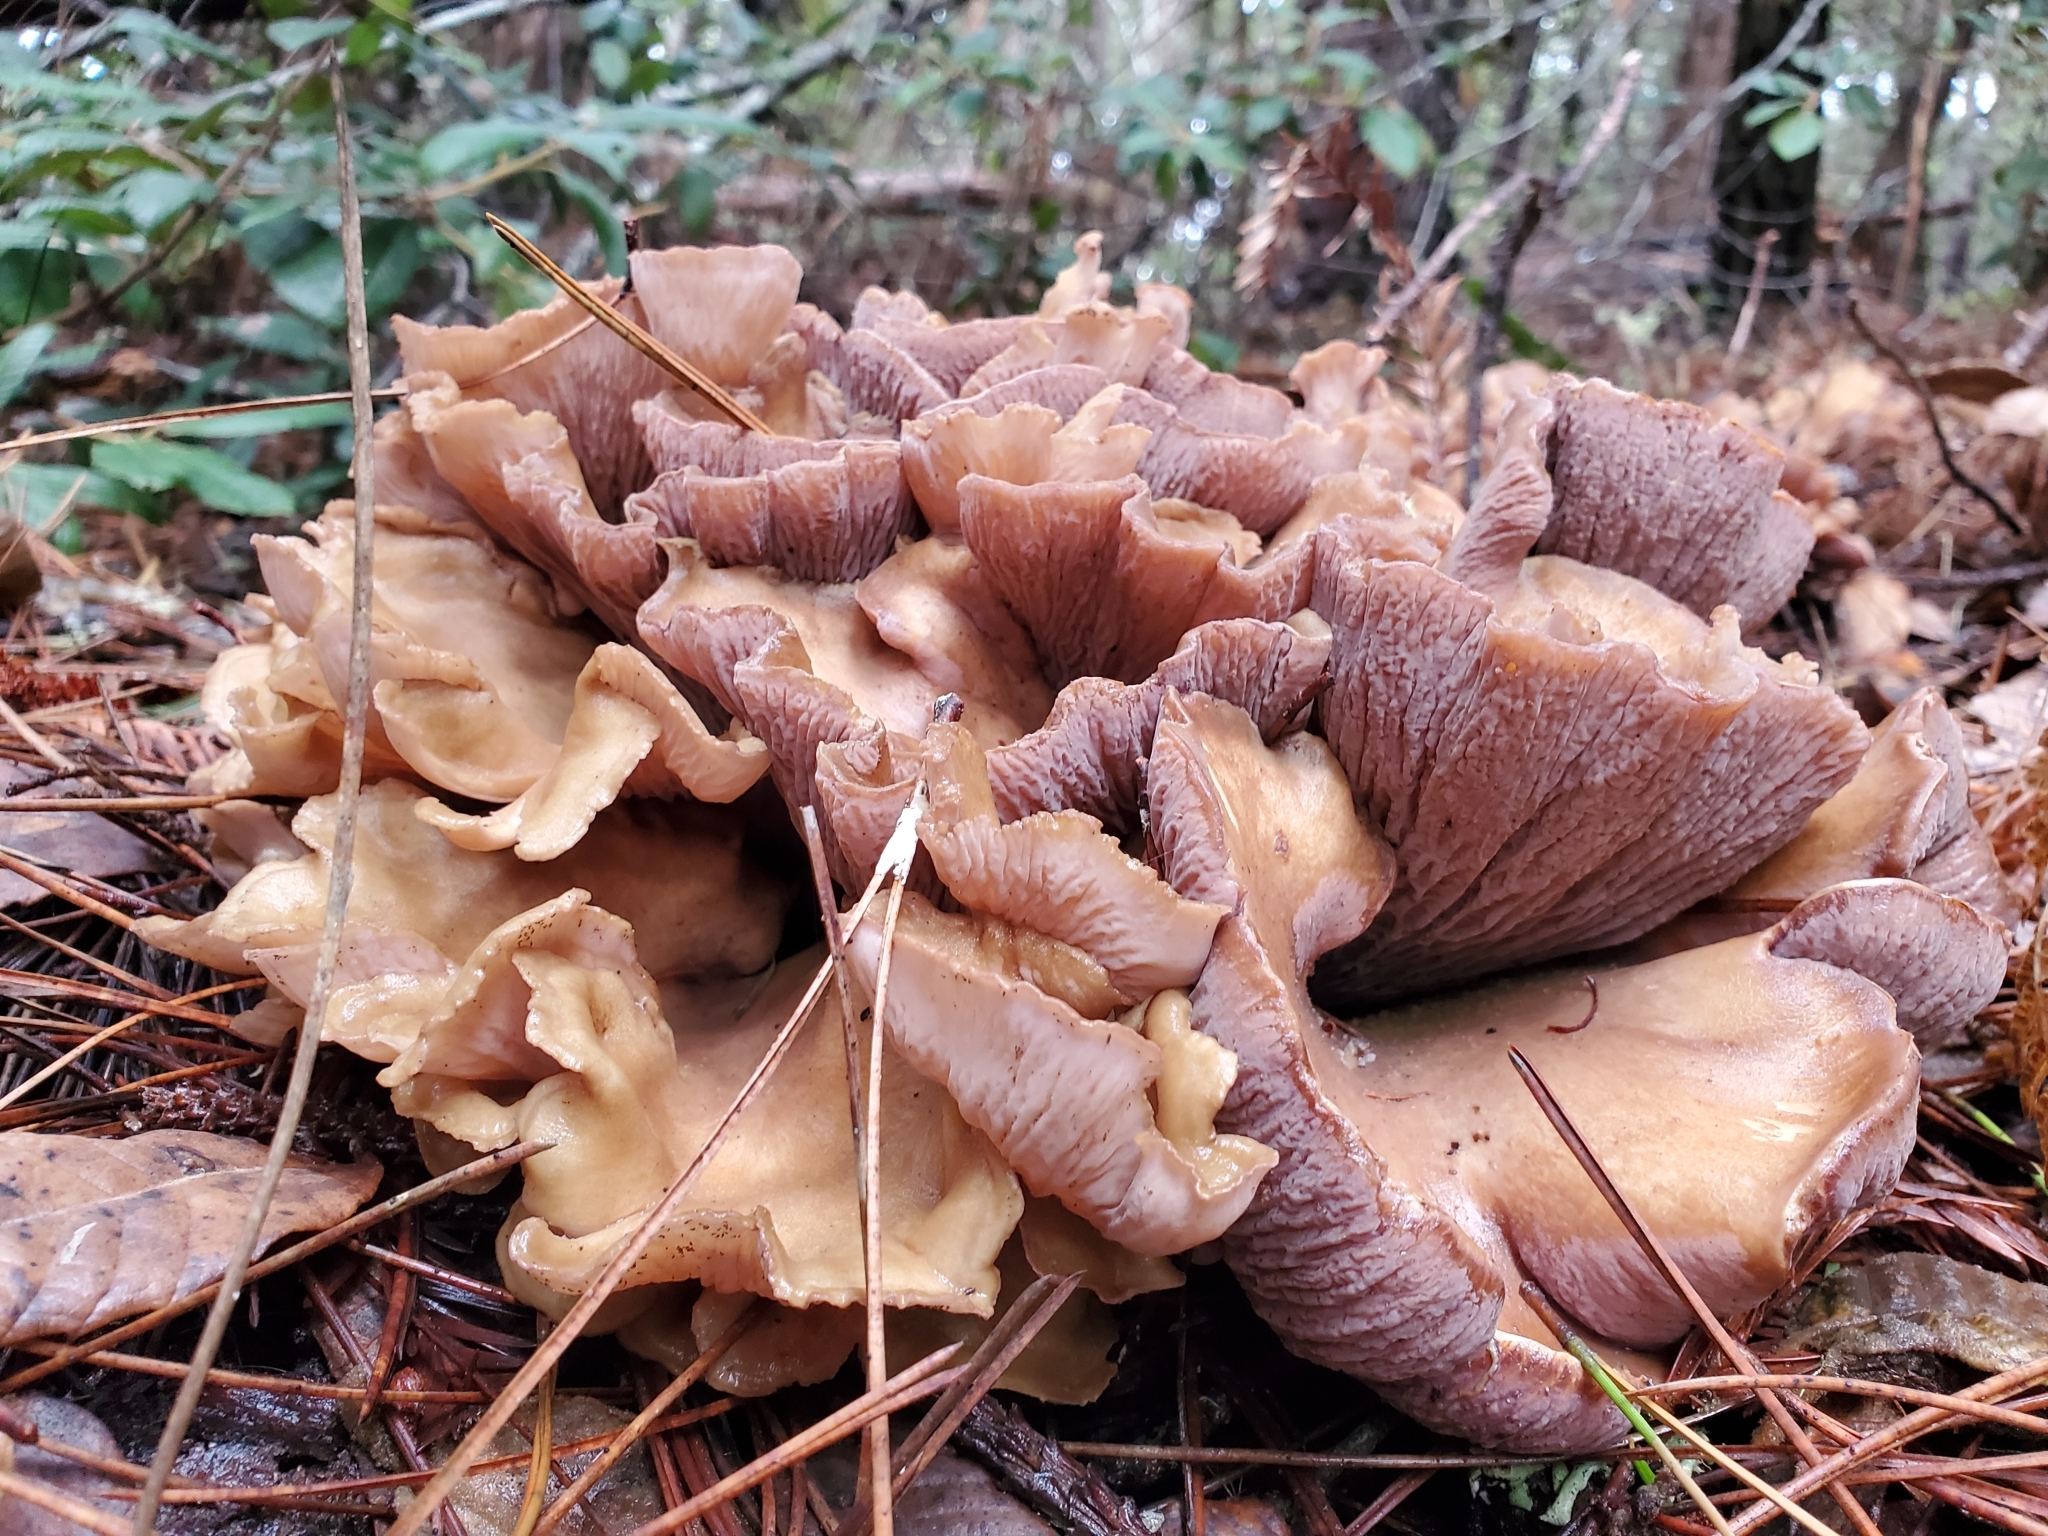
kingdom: Fungi
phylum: Basidiomycota
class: Agaricomycetes
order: Gomphales
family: Gomphaceae
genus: Gomphus
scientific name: Gomphus clavatus
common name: Pig's ear
